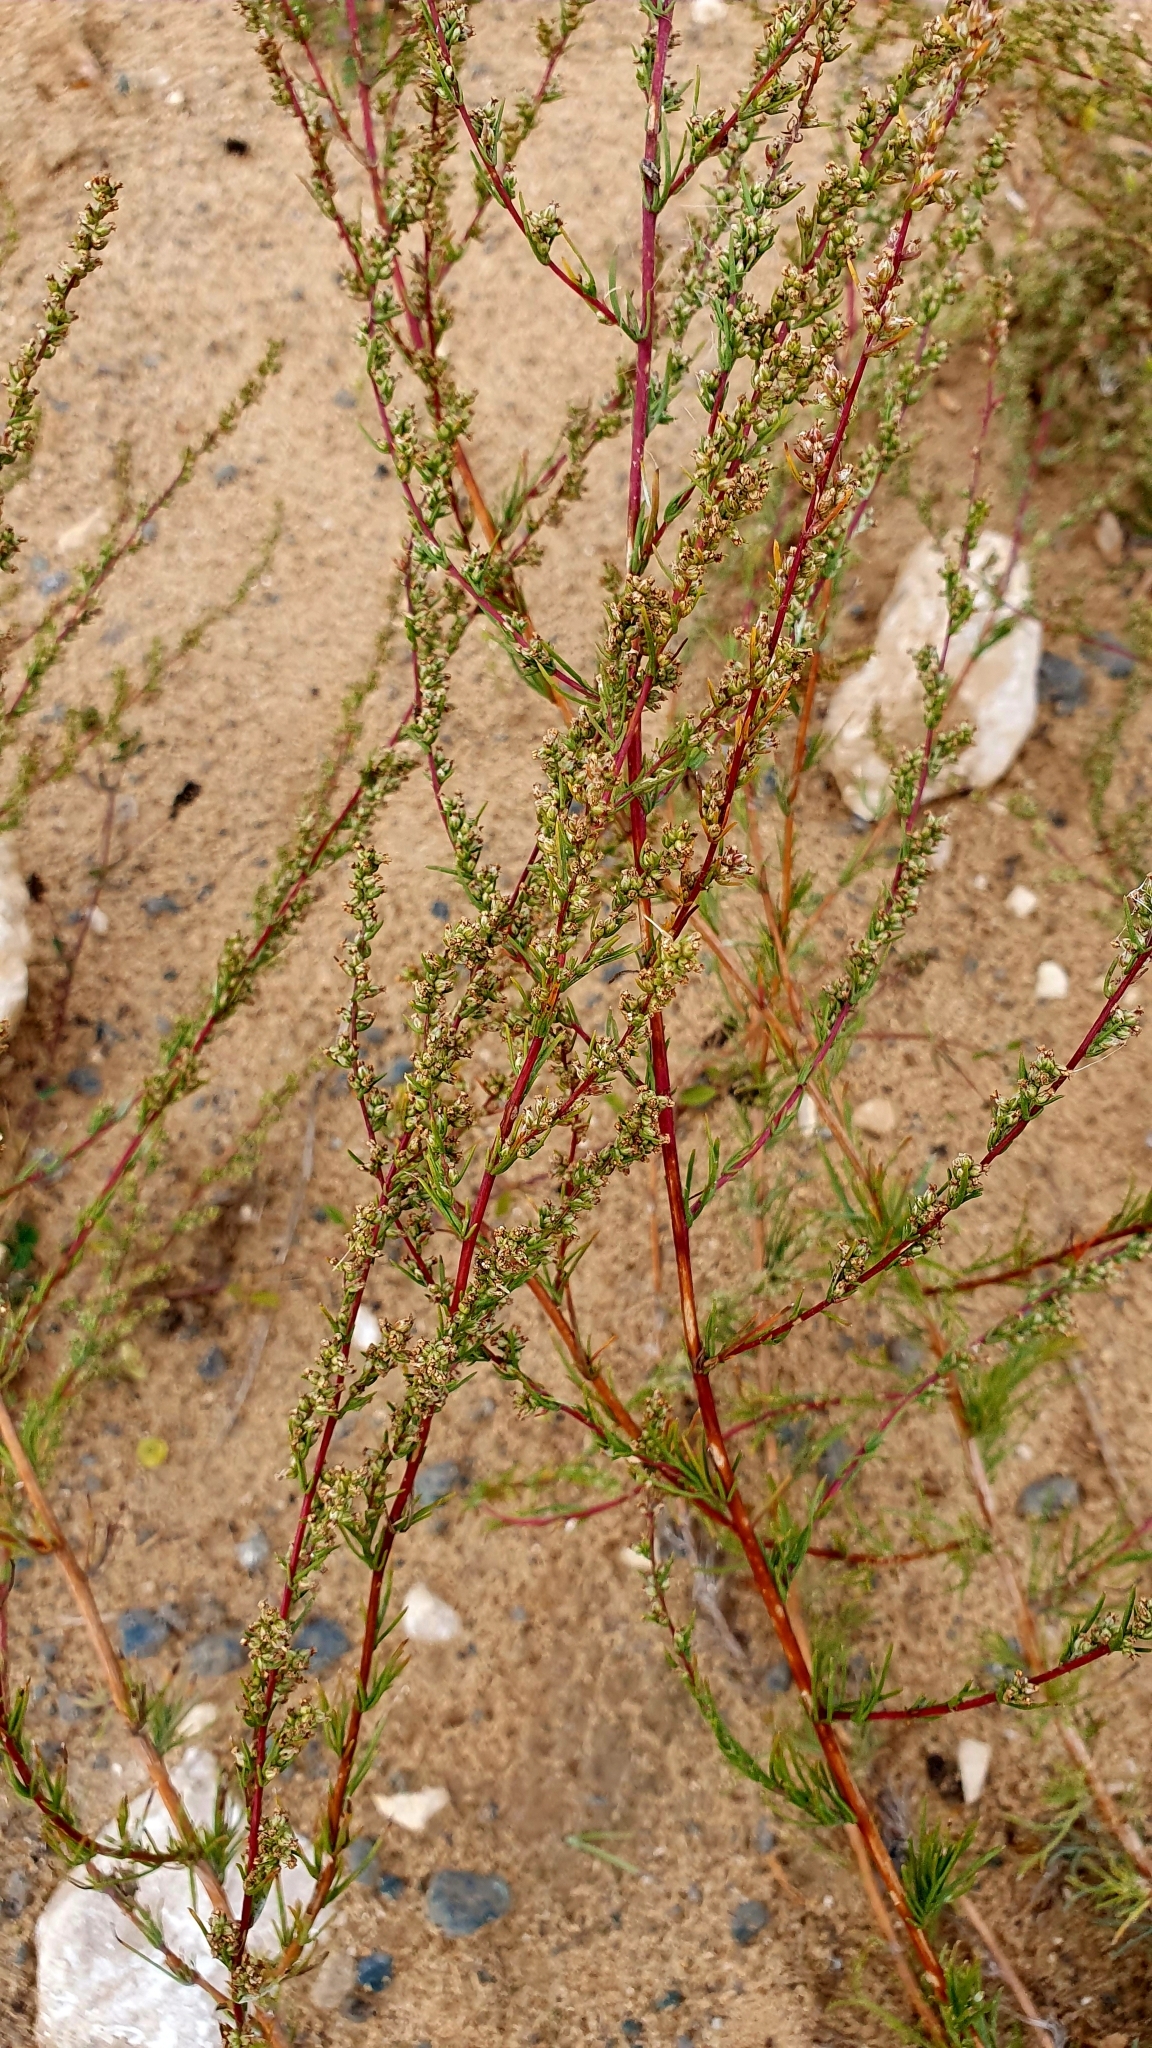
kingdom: Plantae
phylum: Tracheophyta
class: Magnoliopsida
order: Asterales
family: Asteraceae
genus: Artemisia
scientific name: Artemisia campestris
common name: Field wormwood
